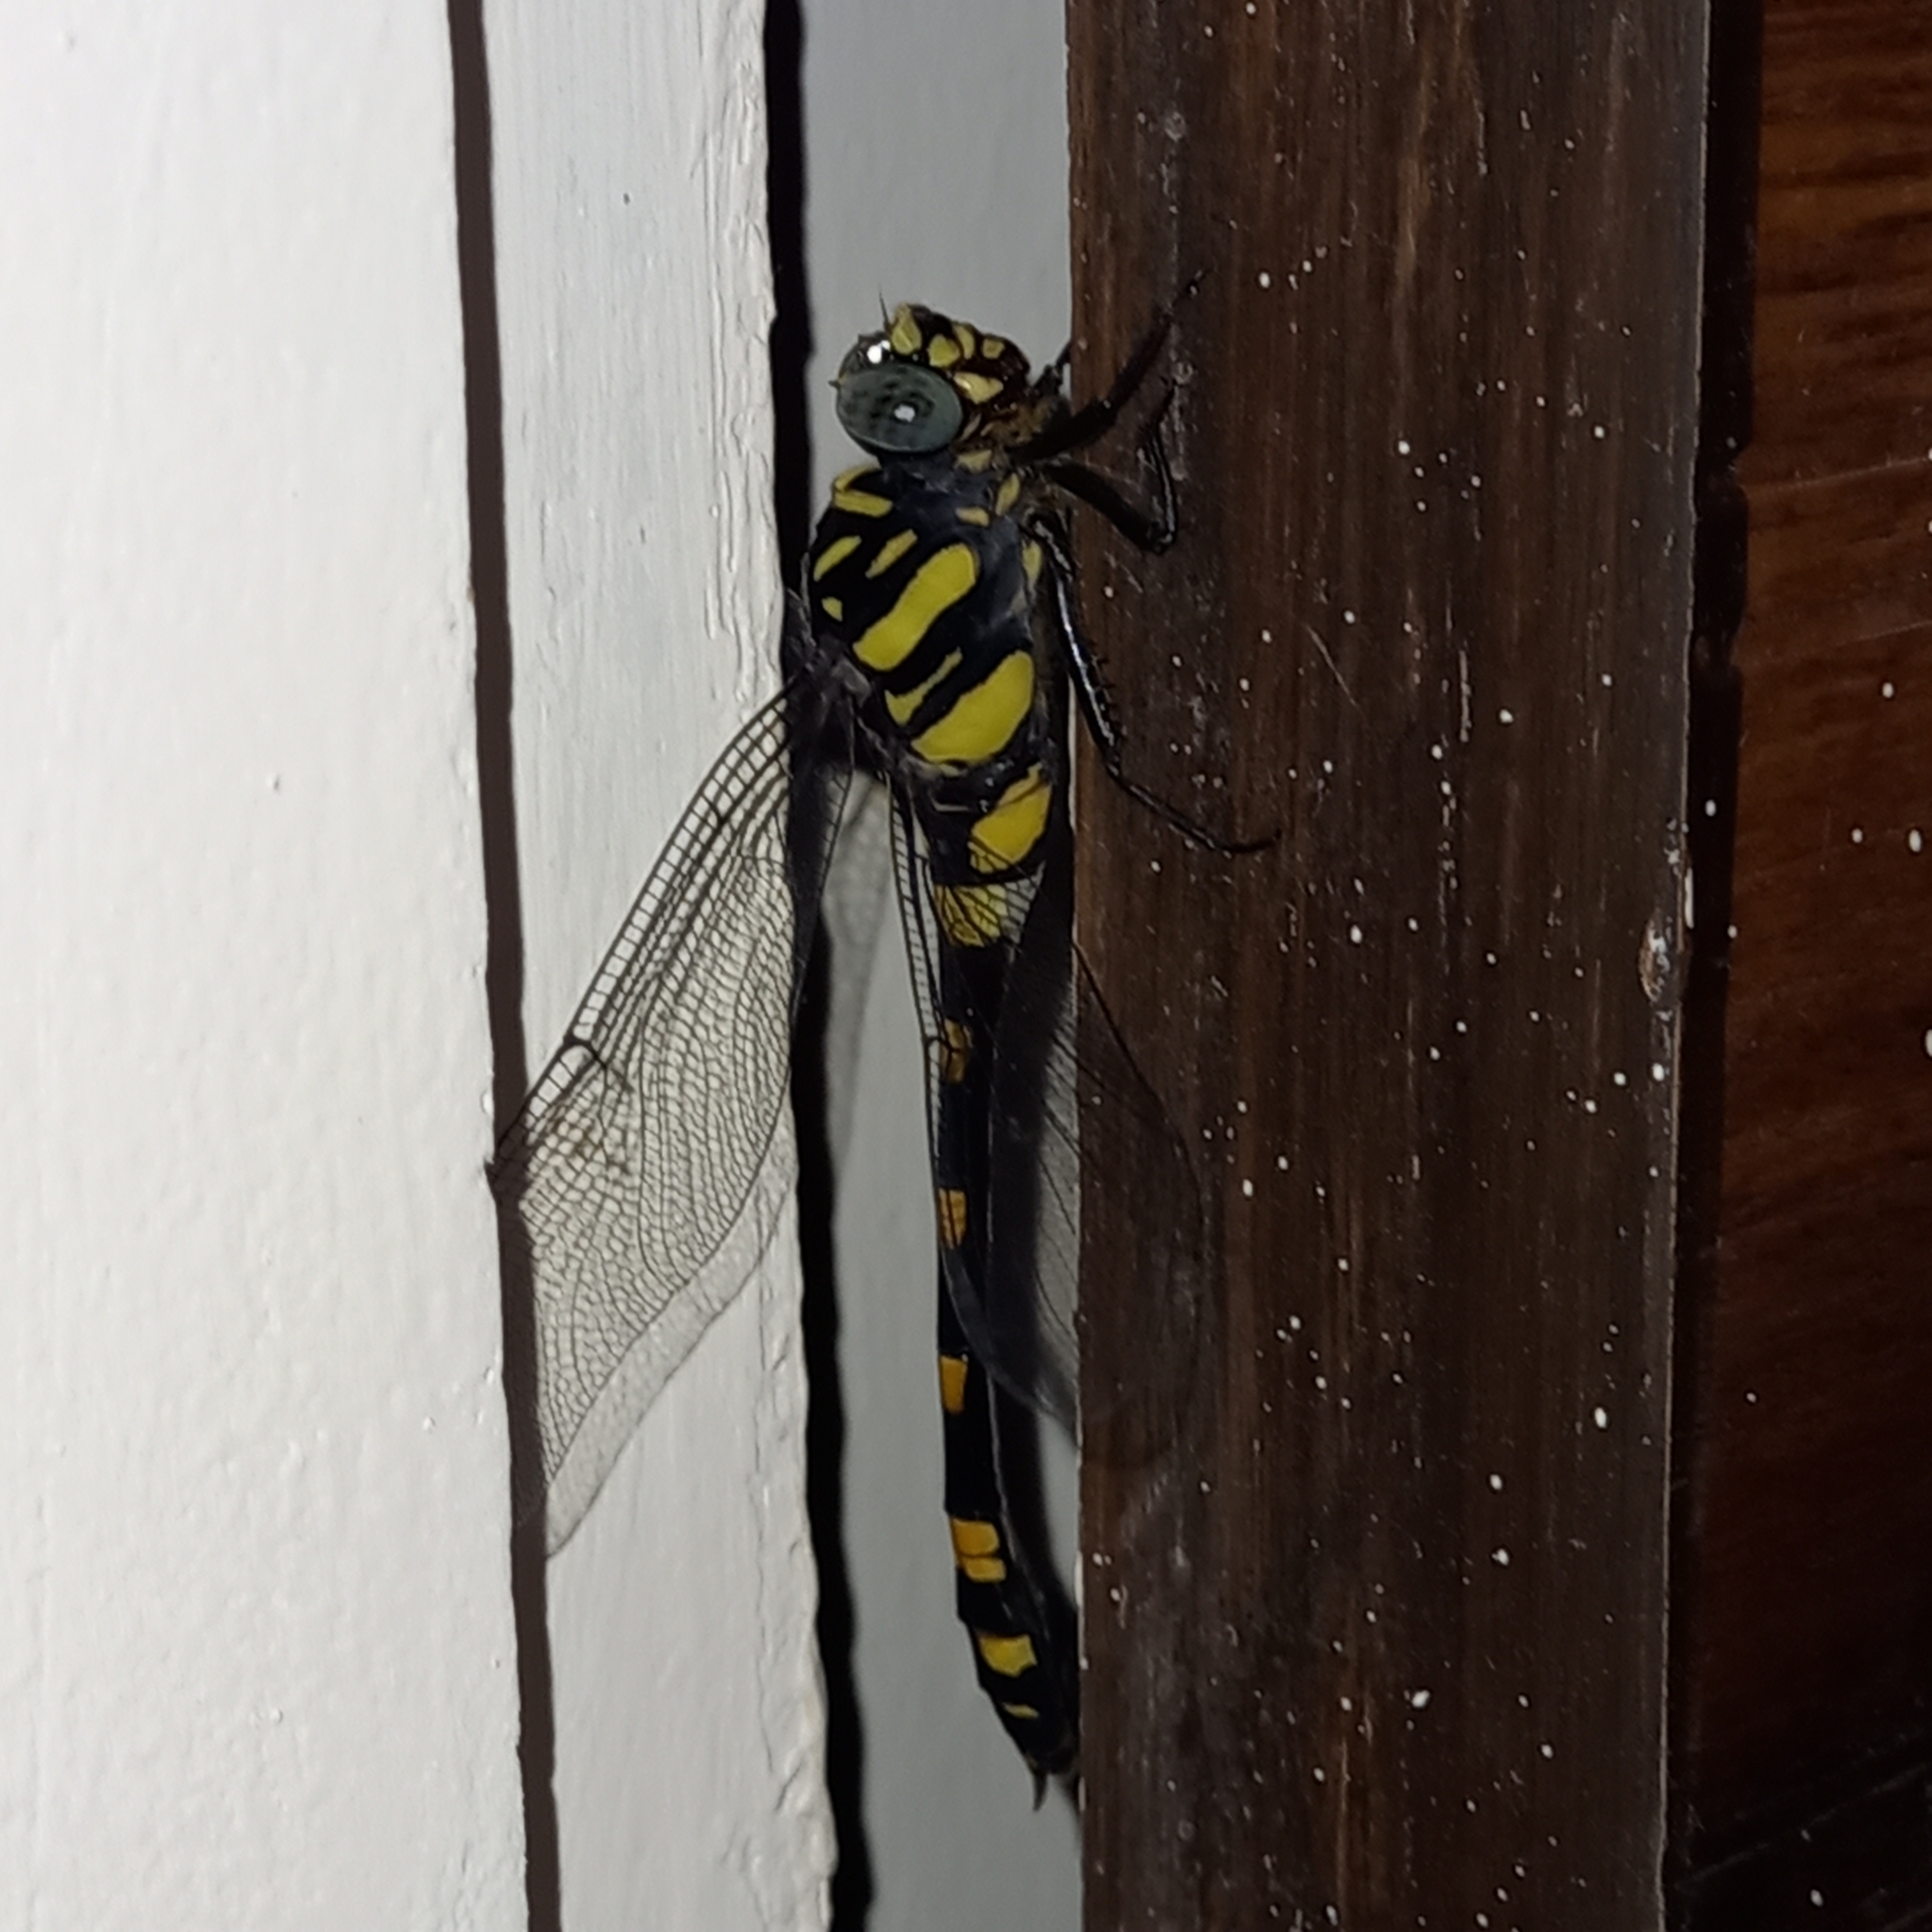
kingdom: Animalia
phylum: Arthropoda
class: Insecta
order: Odonata
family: Gomphidae
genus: Ictinogomphus
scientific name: Ictinogomphus rapax
